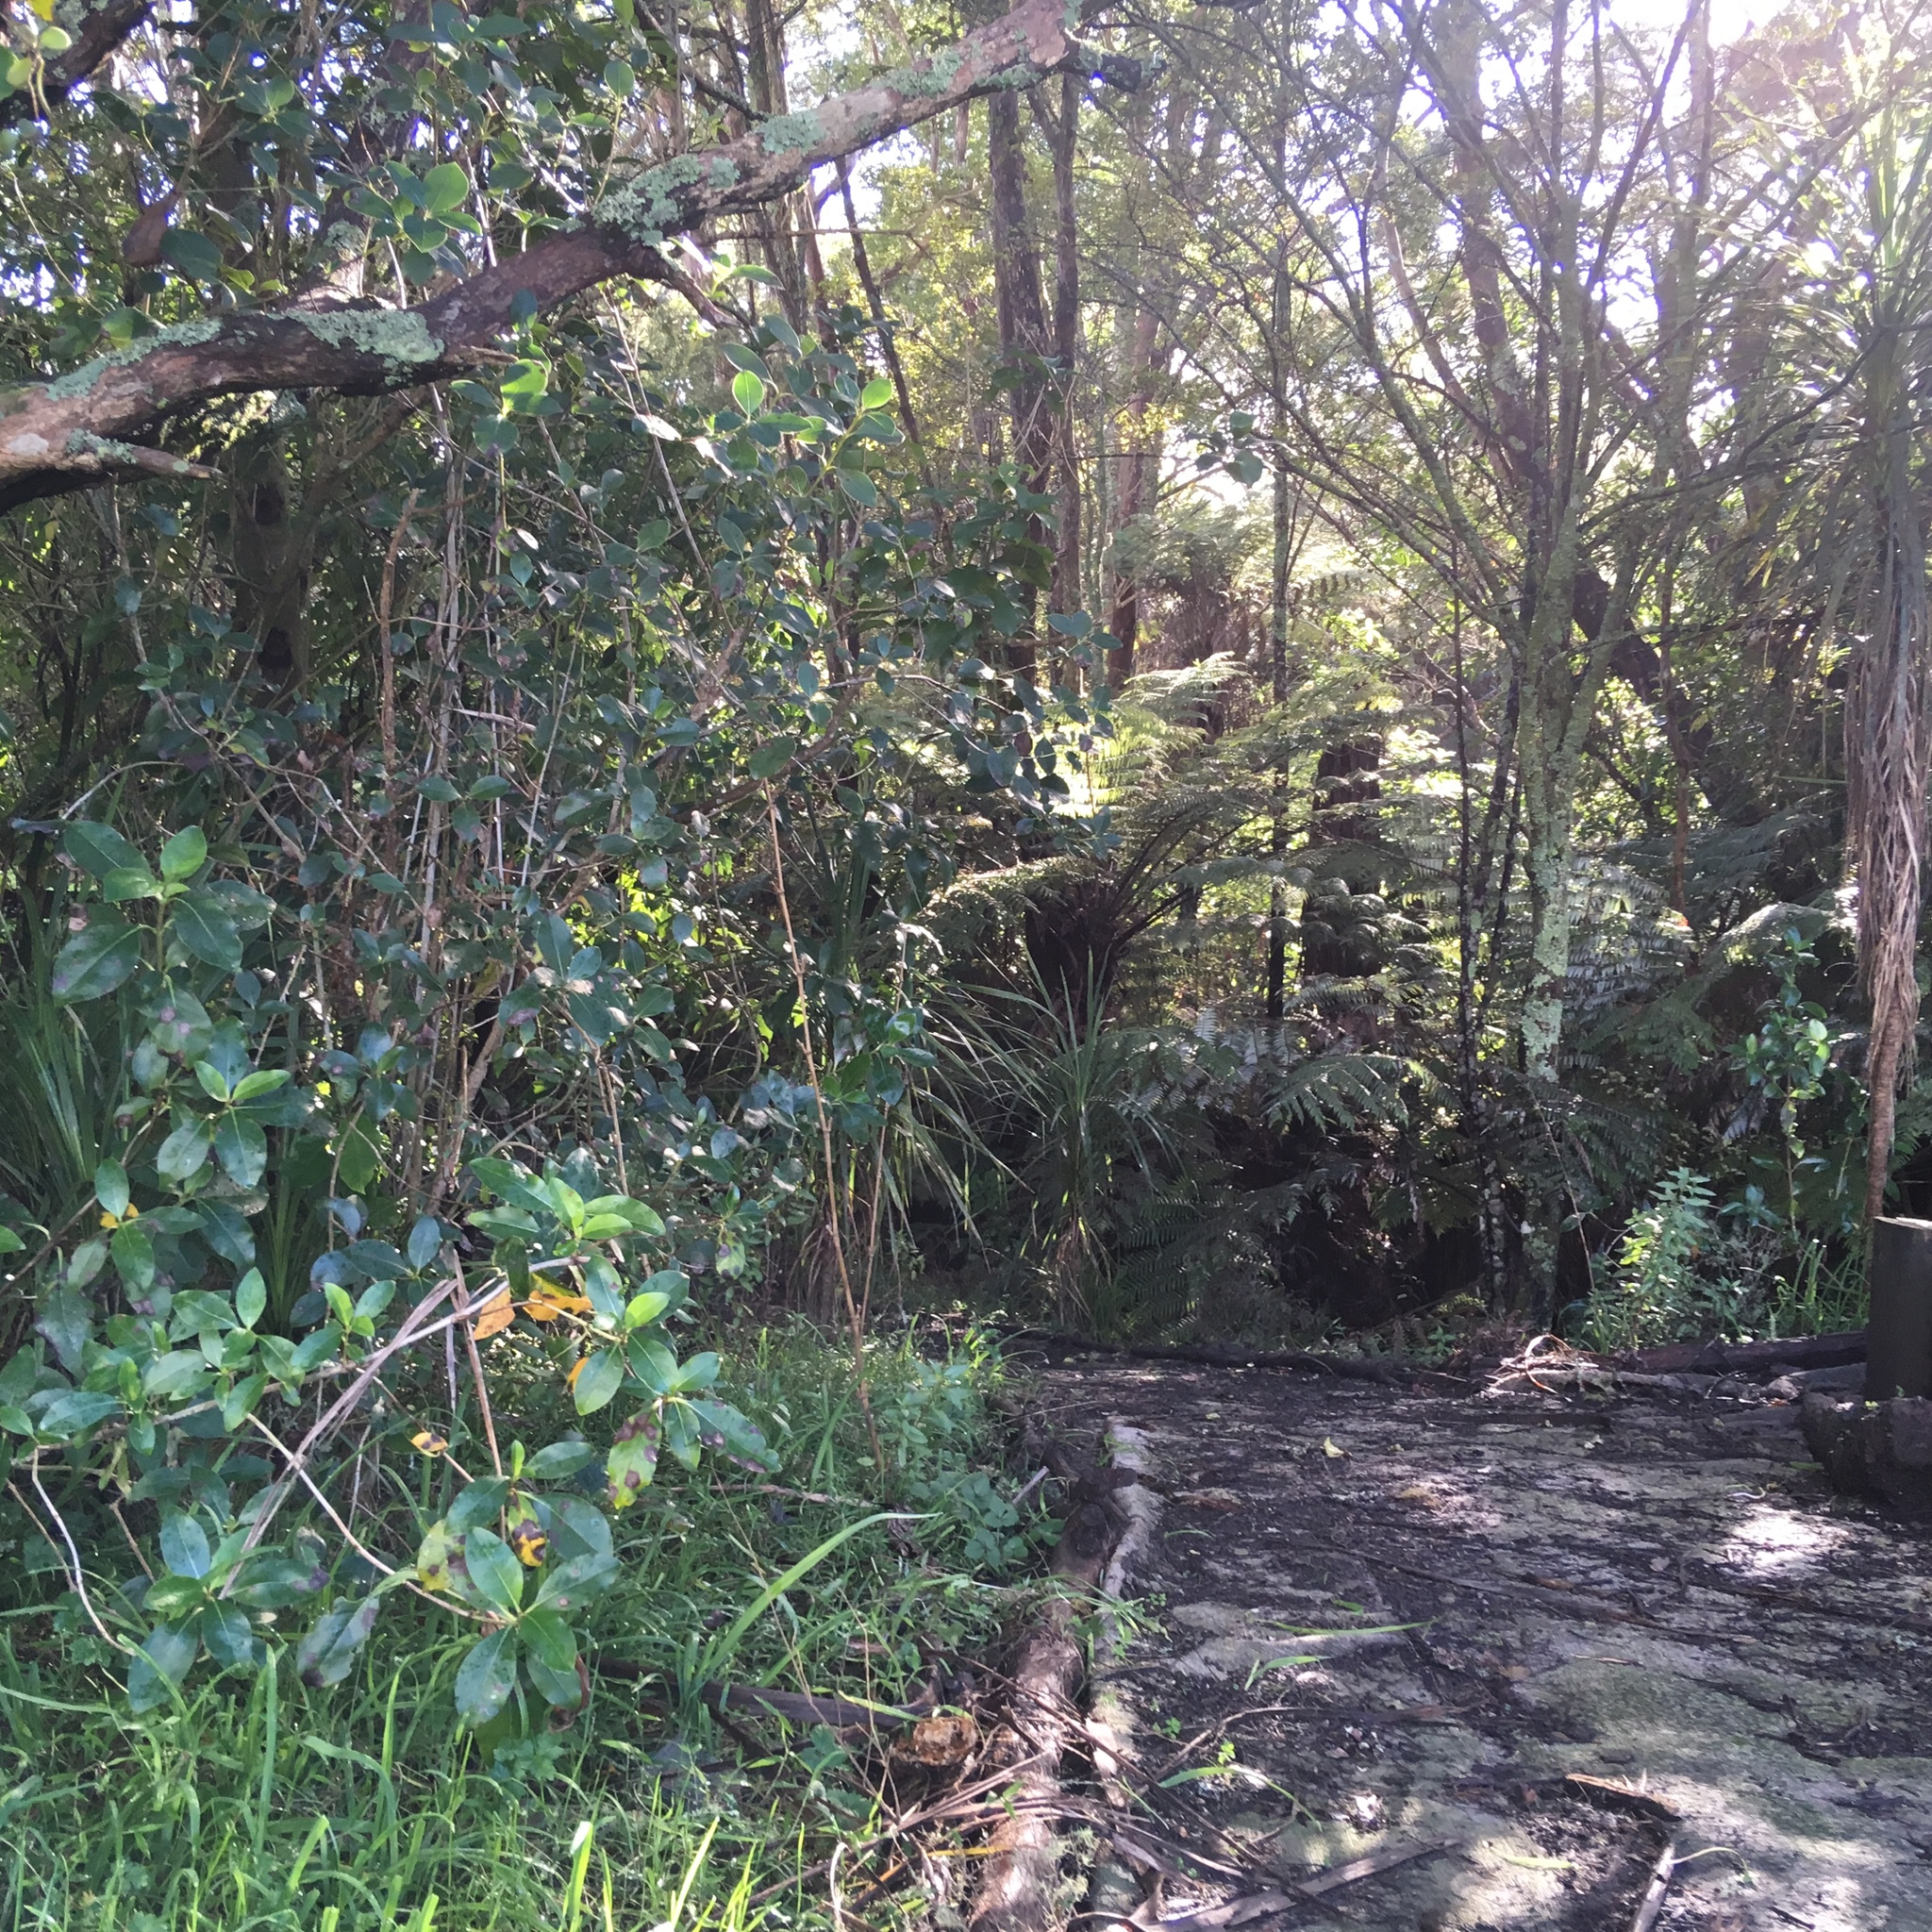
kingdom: Plantae
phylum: Tracheophyta
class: Magnoliopsida
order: Gentianales
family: Rubiaceae
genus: Coprosma
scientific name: Coprosma robusta
